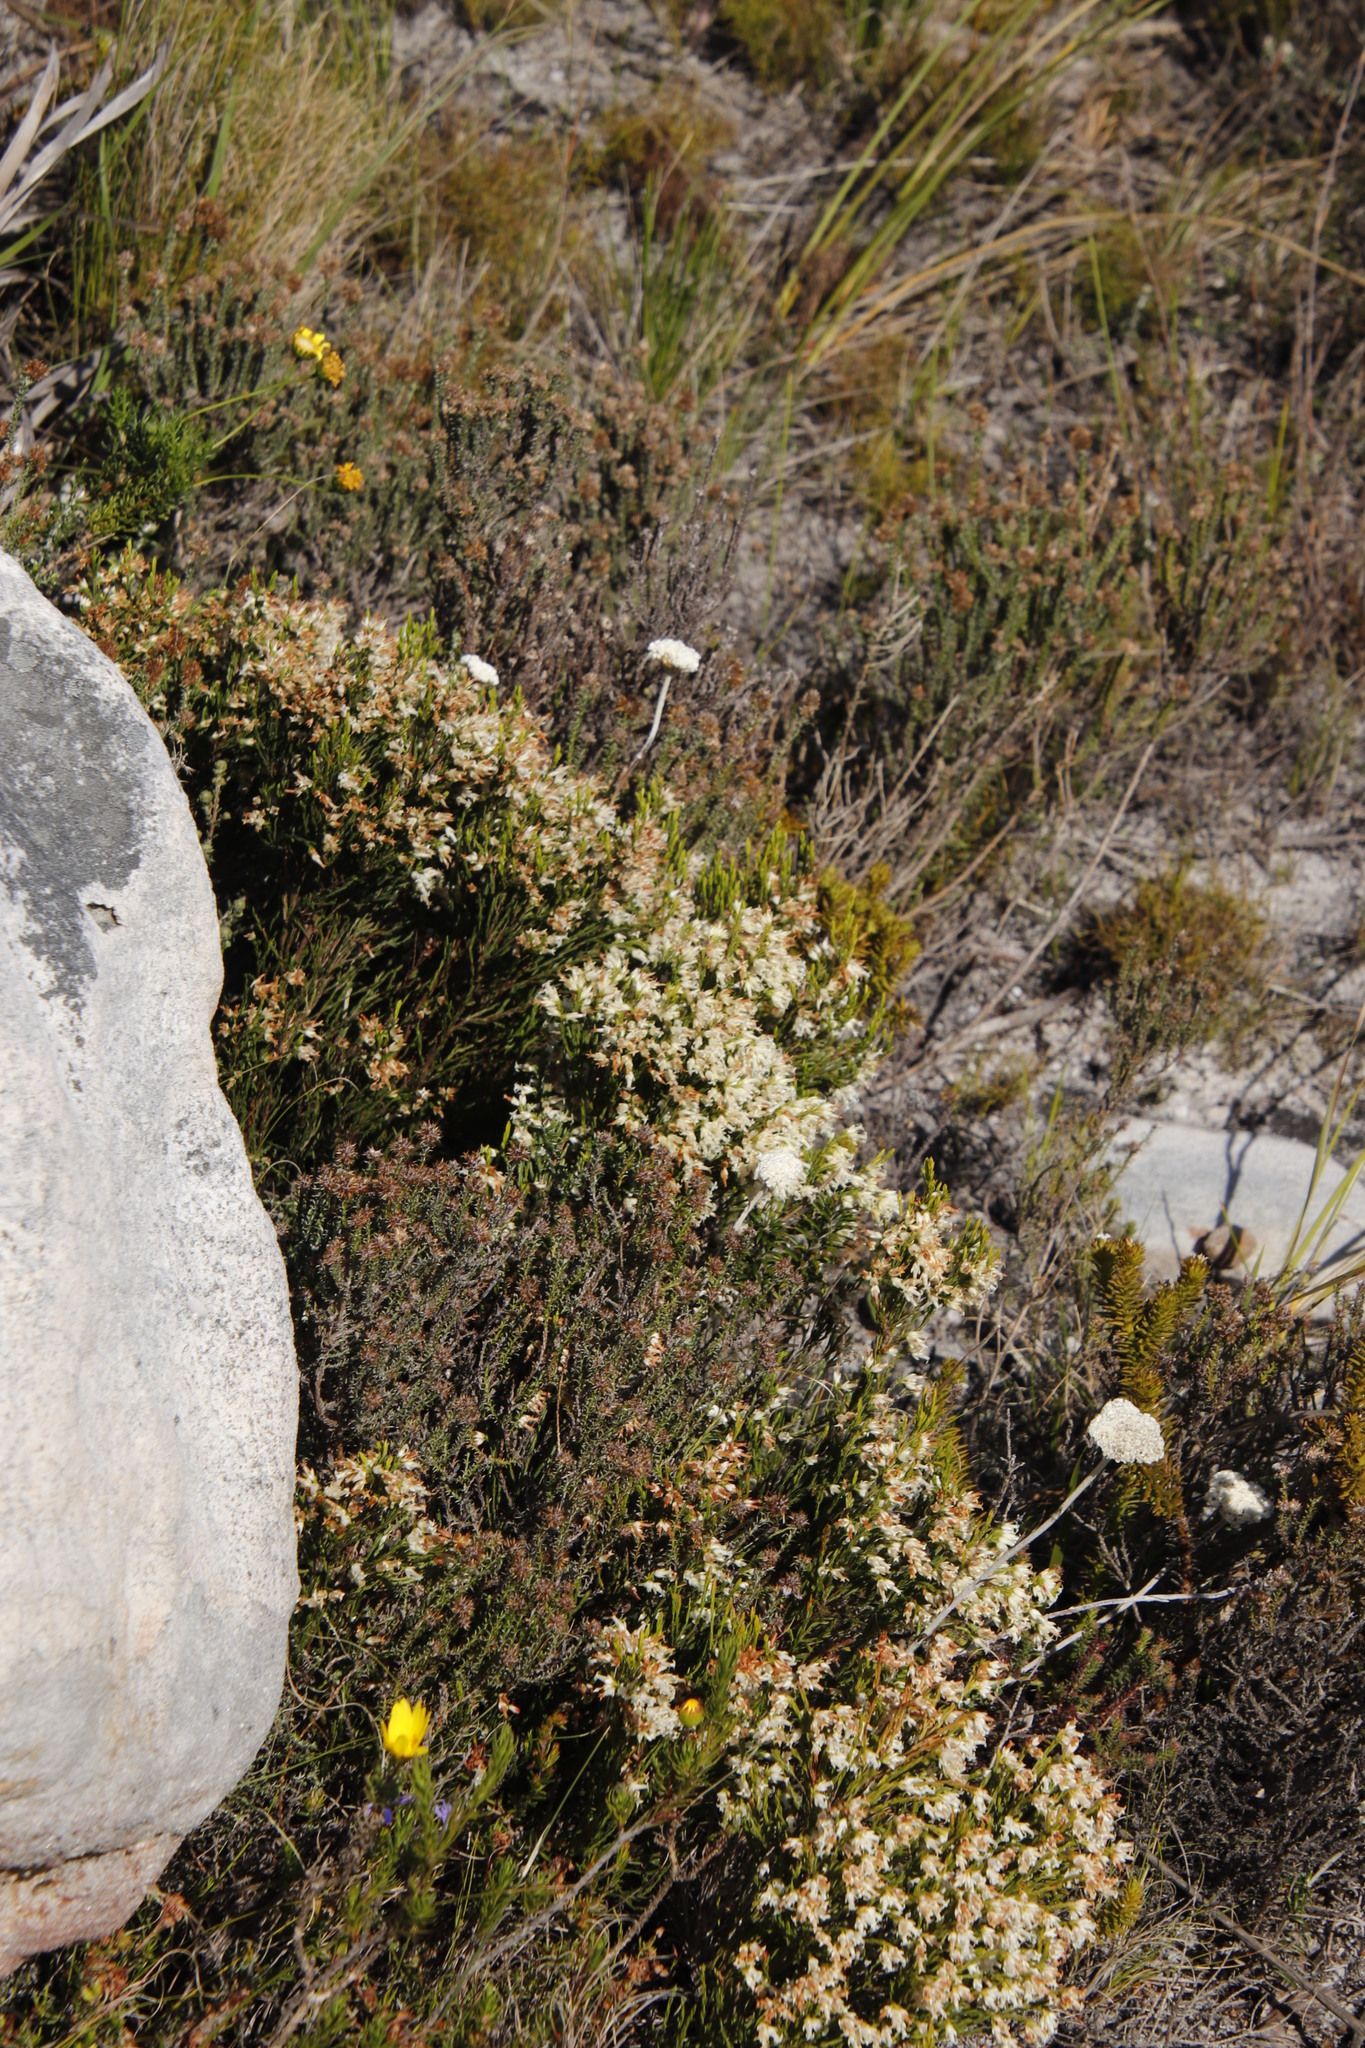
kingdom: Plantae
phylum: Tracheophyta
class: Magnoliopsida
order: Ericales
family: Ericaceae
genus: Erica
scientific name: Erica lutea
